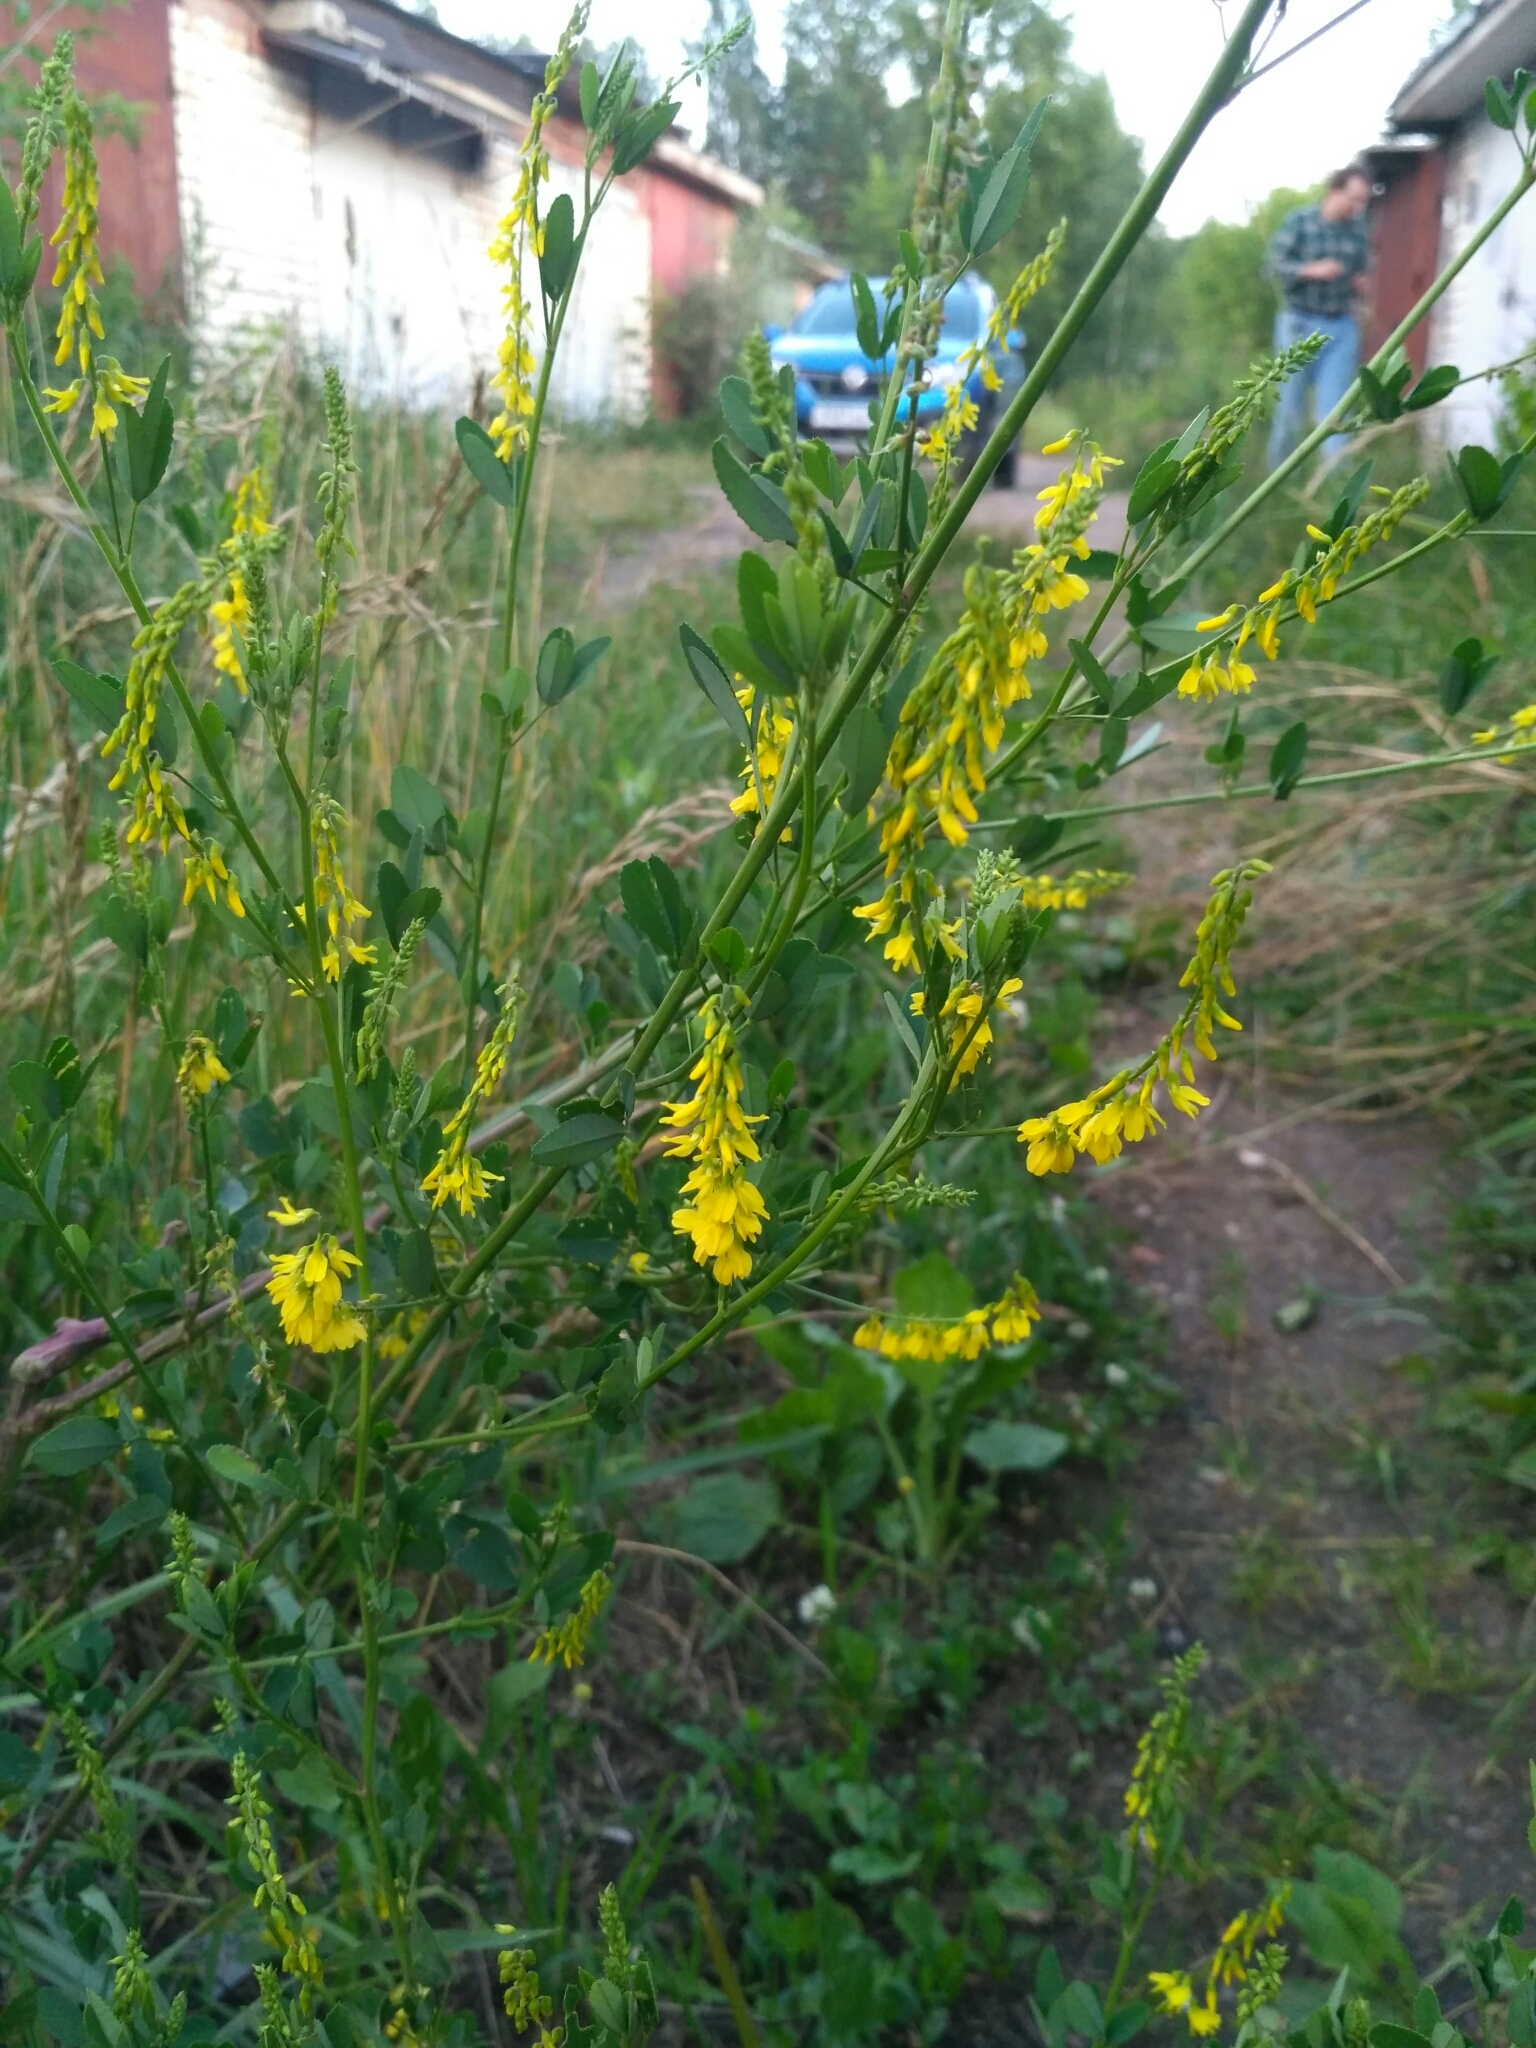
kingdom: Plantae
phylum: Tracheophyta
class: Magnoliopsida
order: Fabales
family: Fabaceae
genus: Melilotus
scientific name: Melilotus officinalis
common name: Sweetclover
